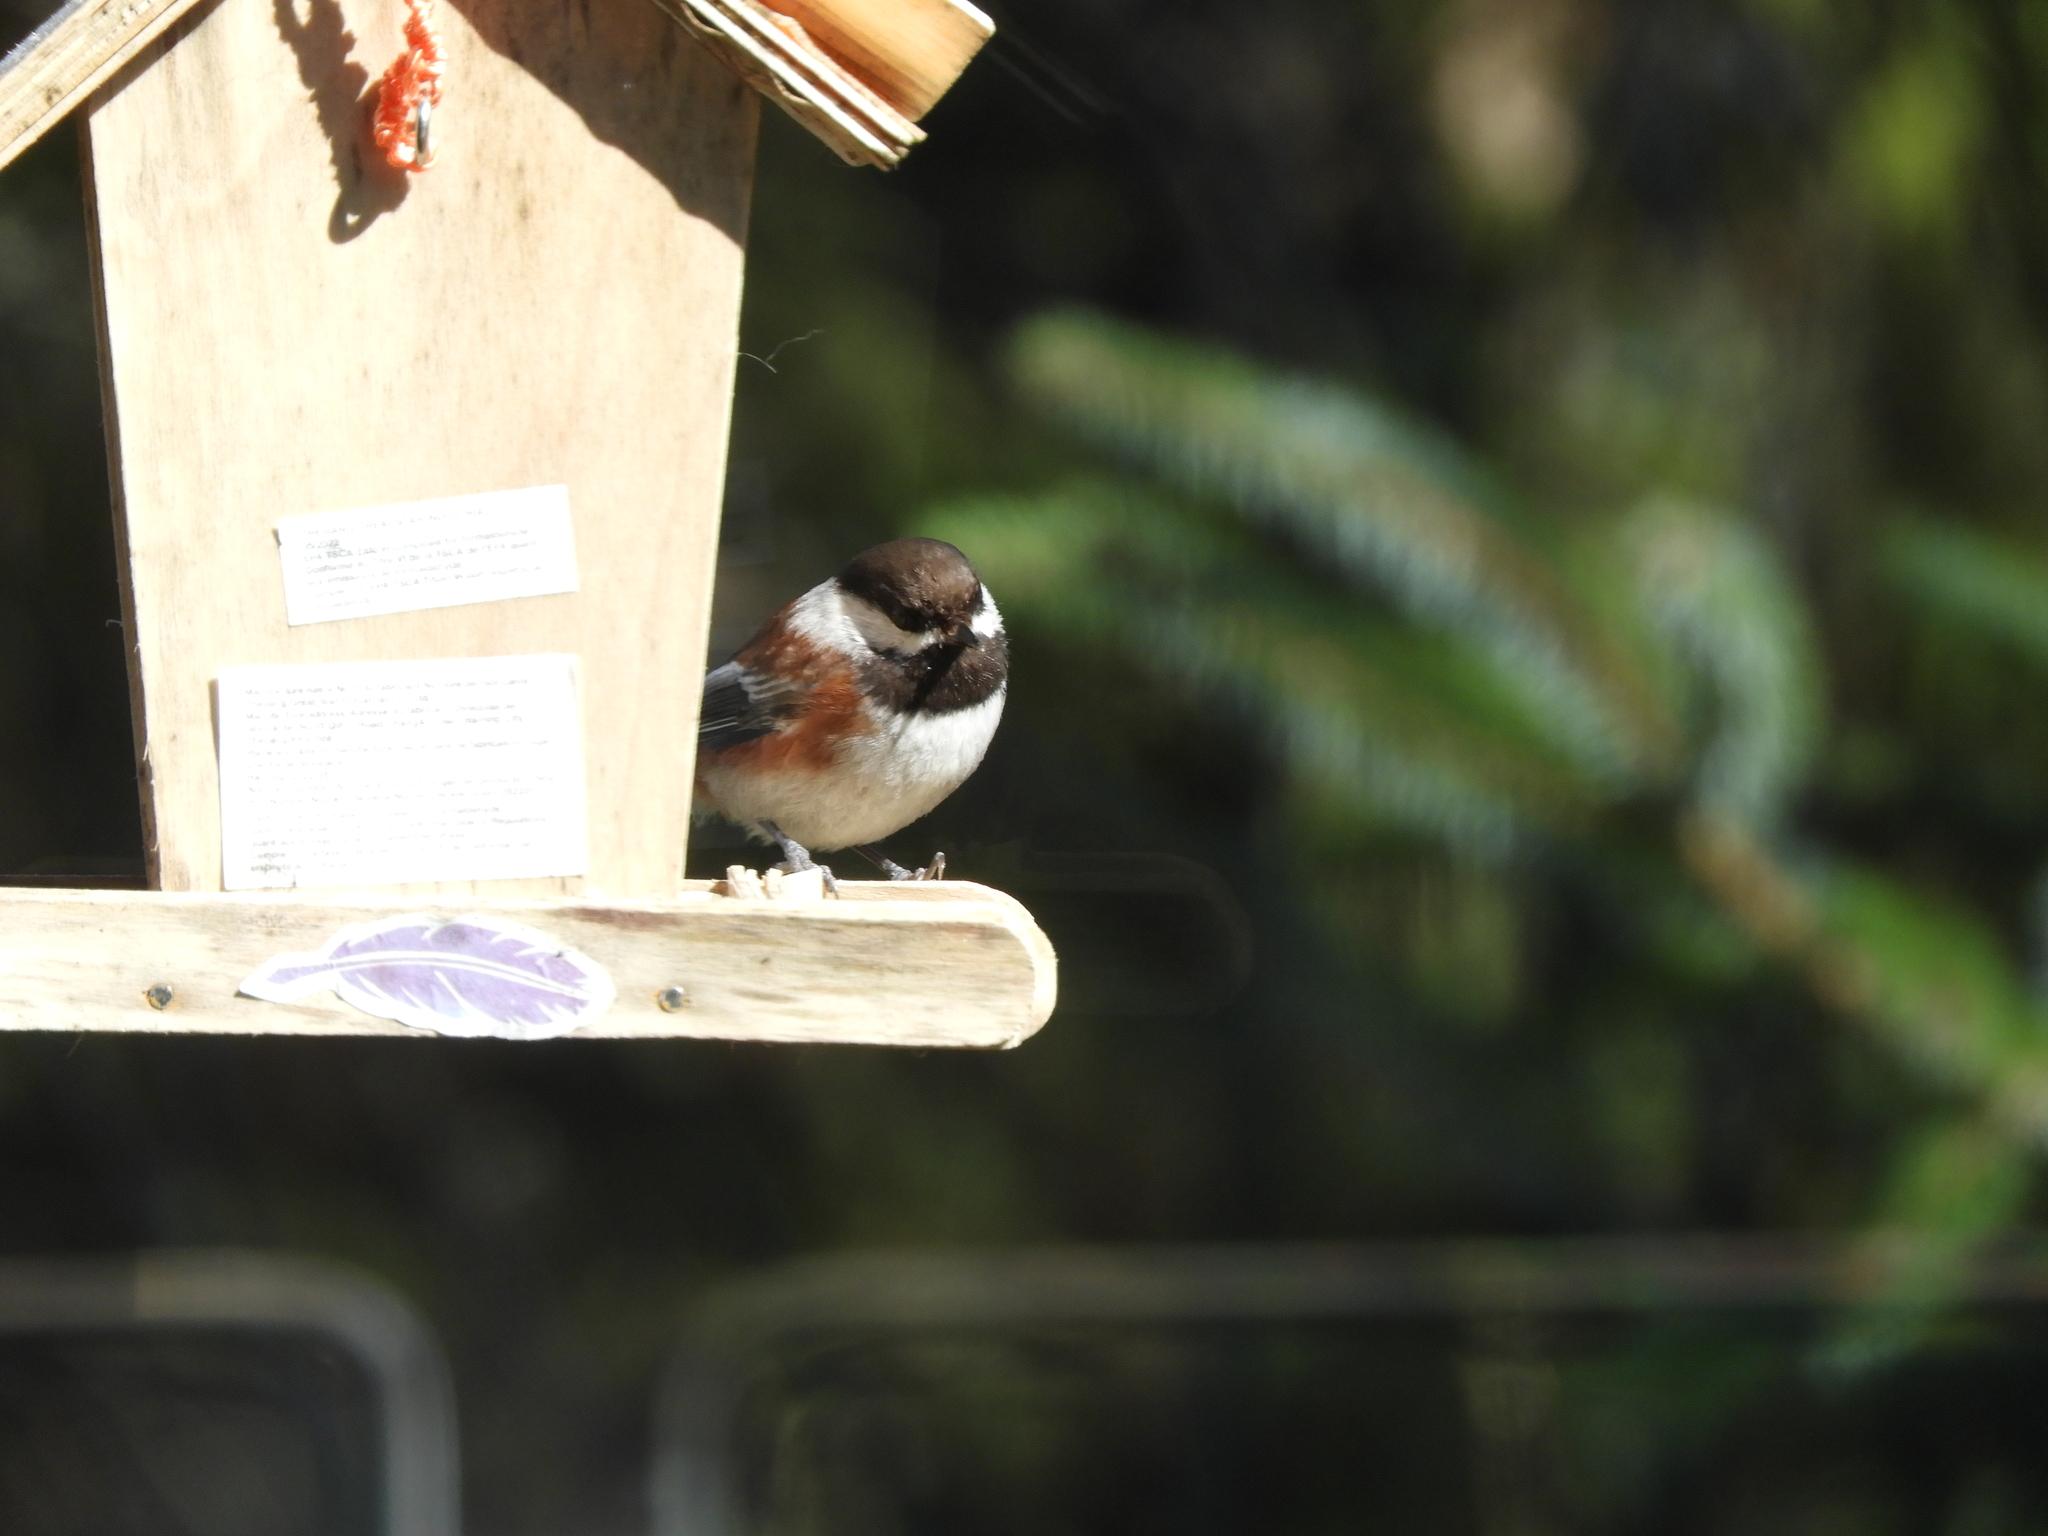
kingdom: Animalia
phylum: Chordata
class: Aves
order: Passeriformes
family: Paridae
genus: Poecile
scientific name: Poecile rufescens
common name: Chestnut-backed chickadee
